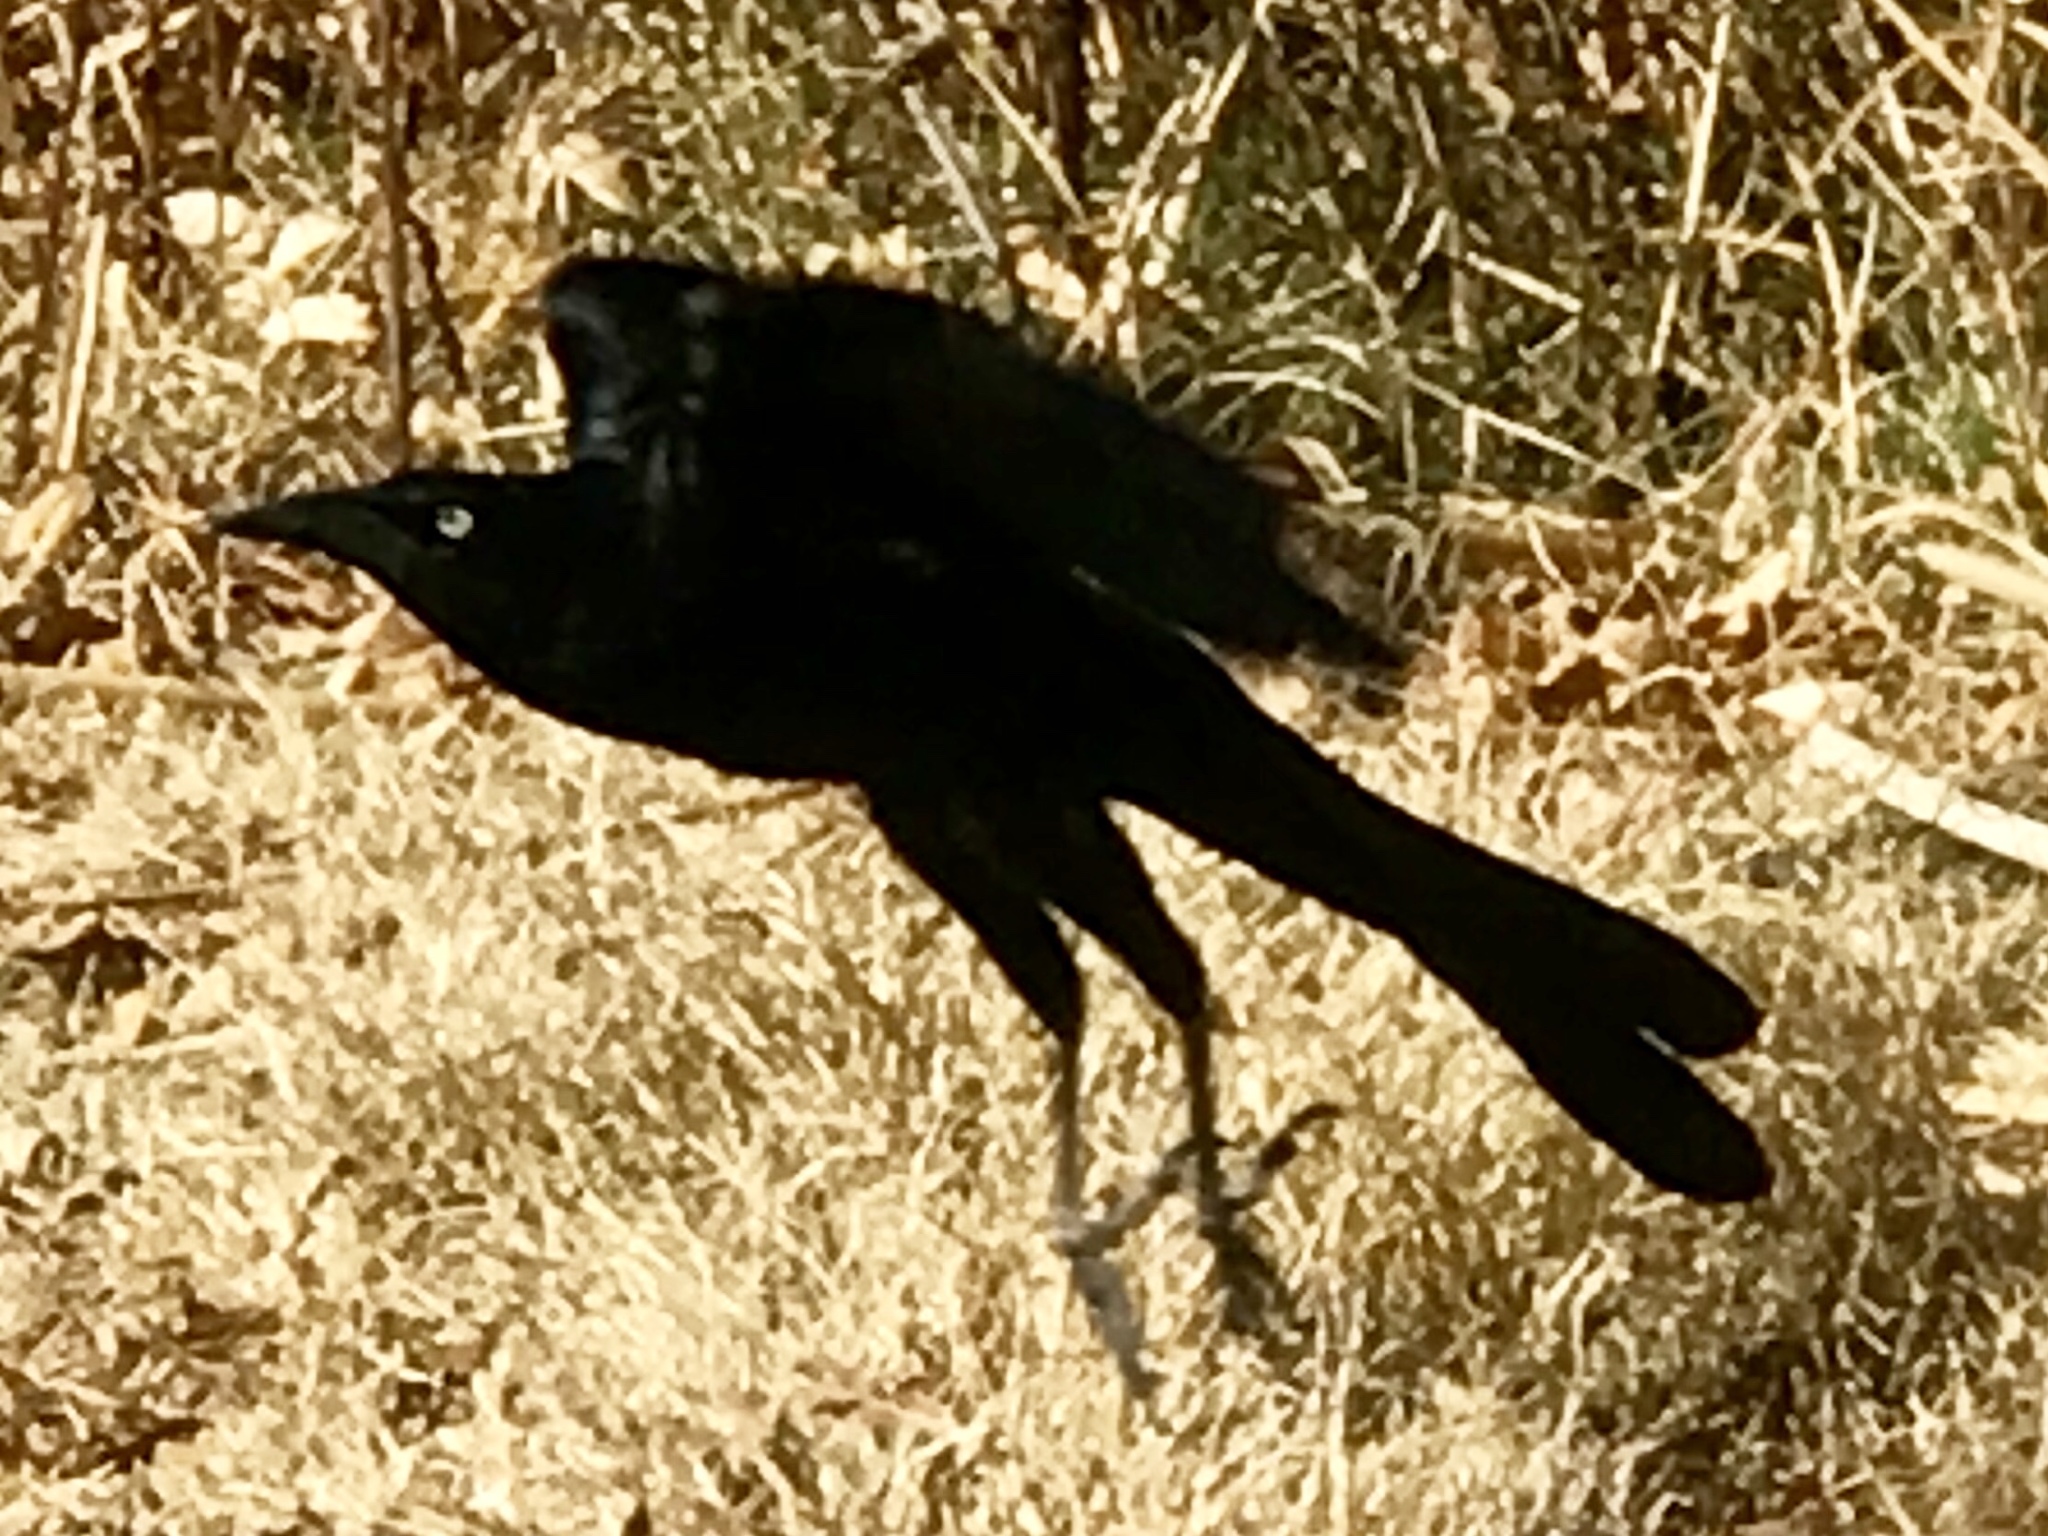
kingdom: Animalia
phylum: Chordata
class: Aves
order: Passeriformes
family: Icteridae
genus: Quiscalus
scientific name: Quiscalus mexicanus
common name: Great-tailed grackle
